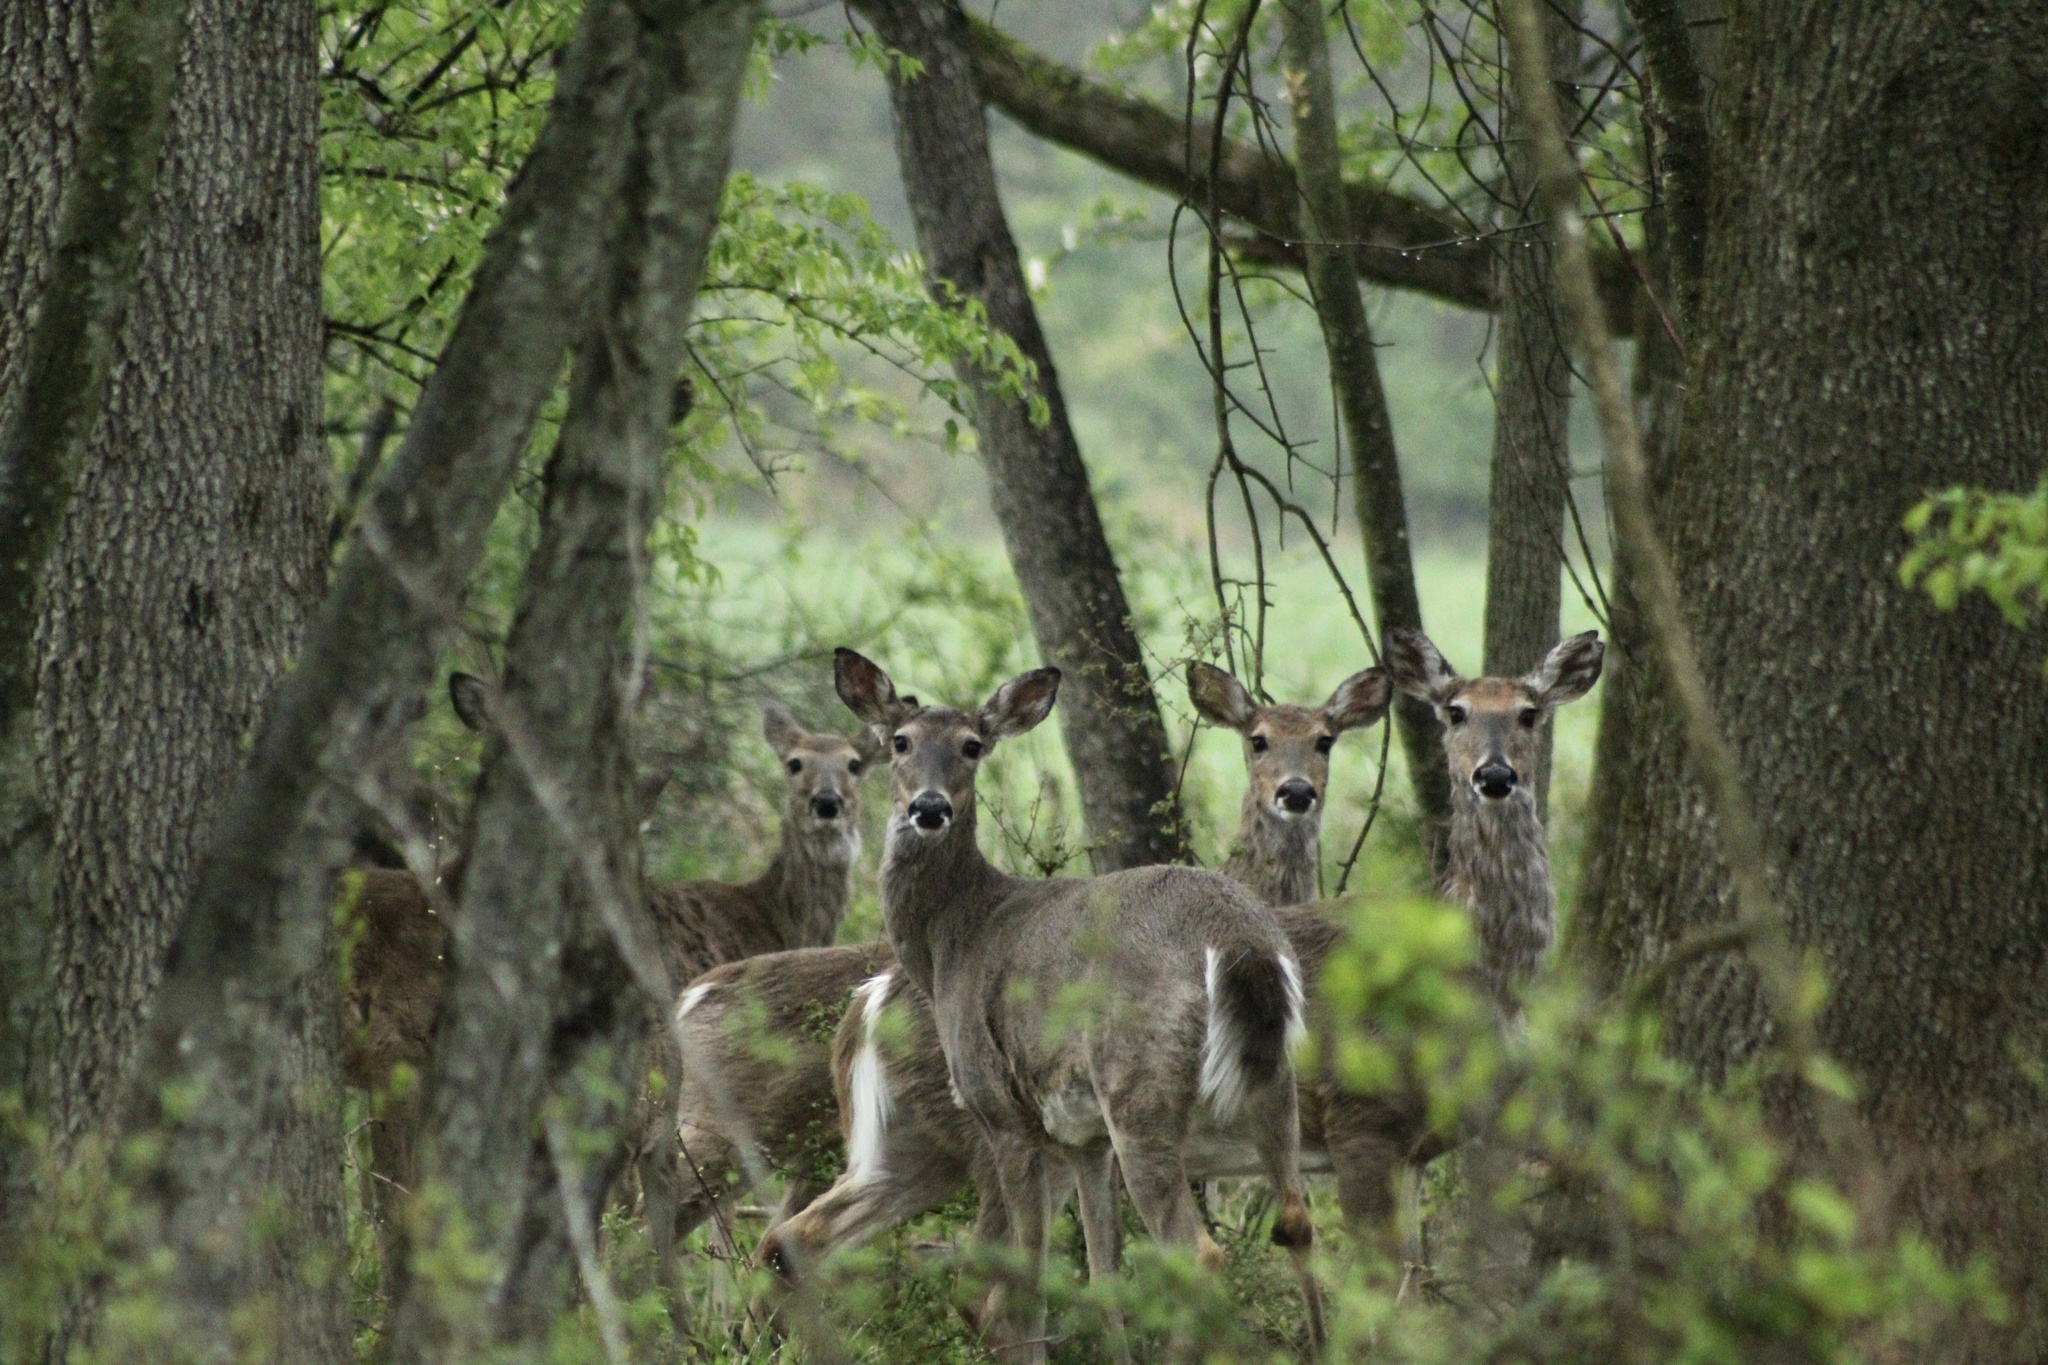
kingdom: Animalia
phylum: Chordata
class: Mammalia
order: Artiodactyla
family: Cervidae
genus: Odocoileus
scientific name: Odocoileus virginianus
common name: White-tailed deer
